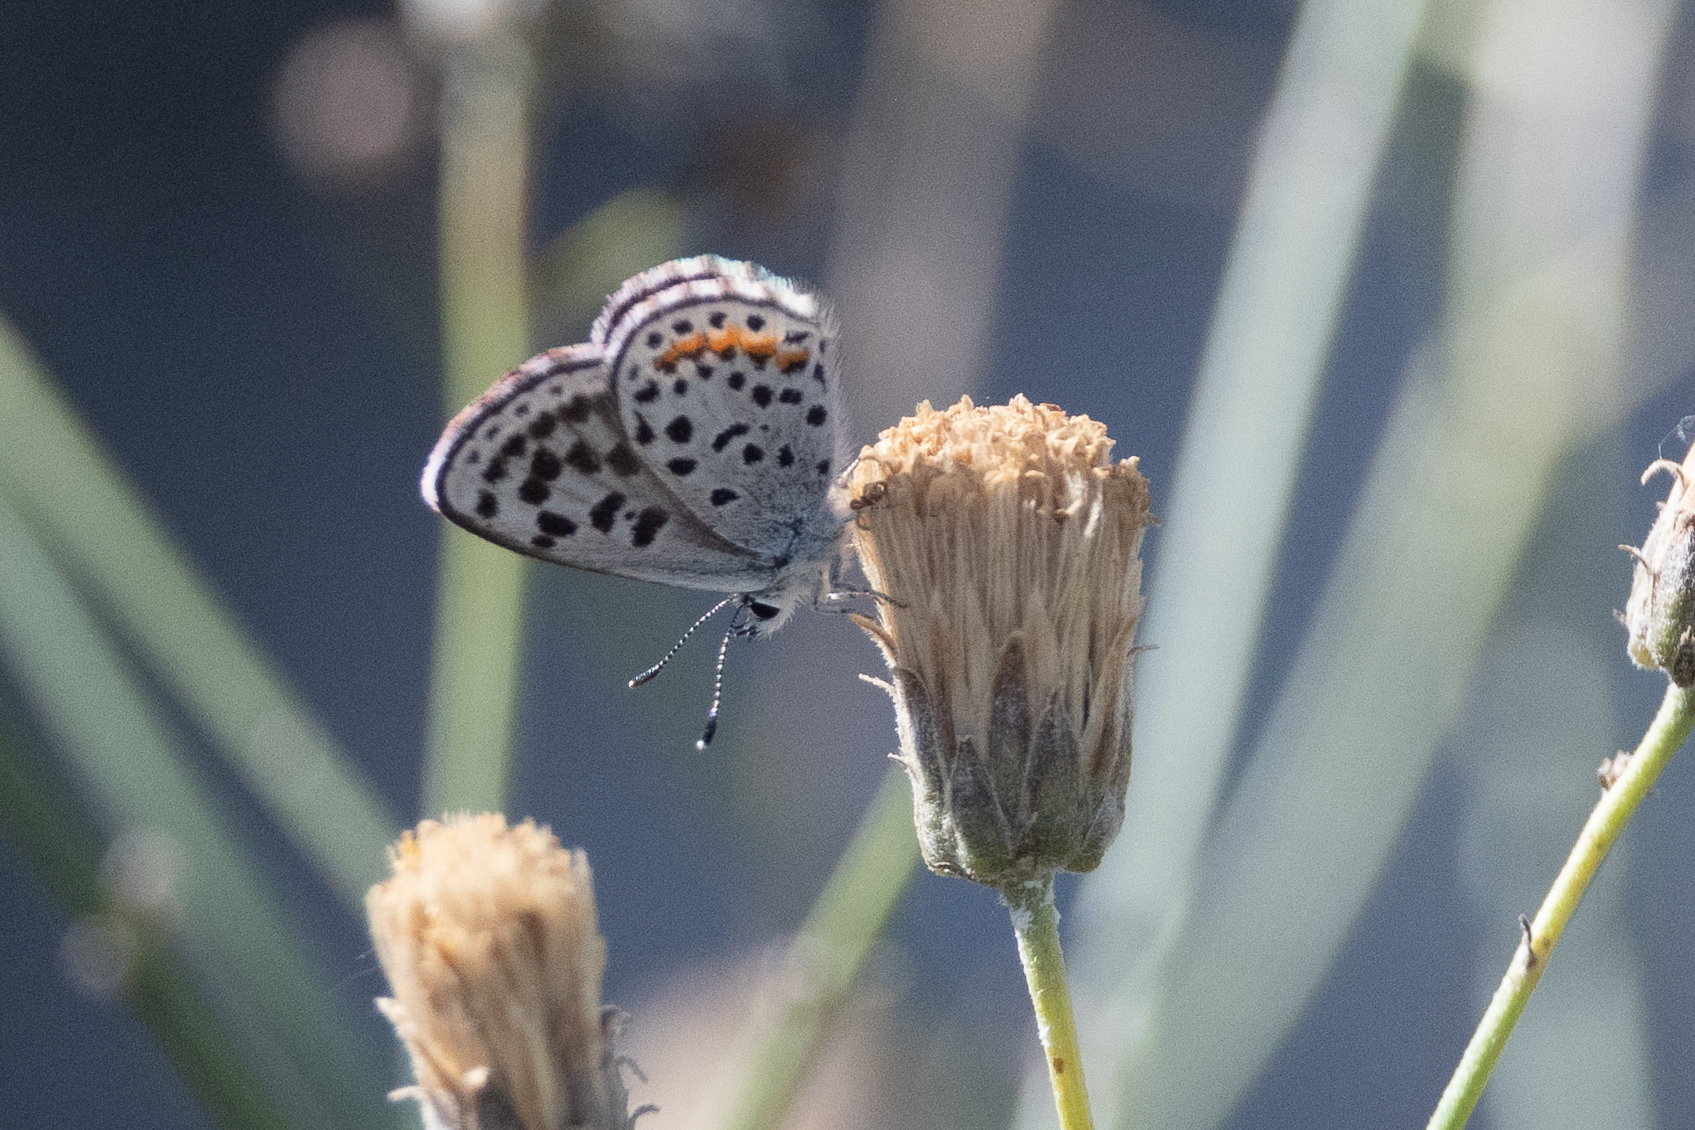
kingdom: Animalia
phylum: Arthropoda
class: Insecta
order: Lepidoptera
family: Lycaenidae
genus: Philotes
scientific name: Philotes bernardino
